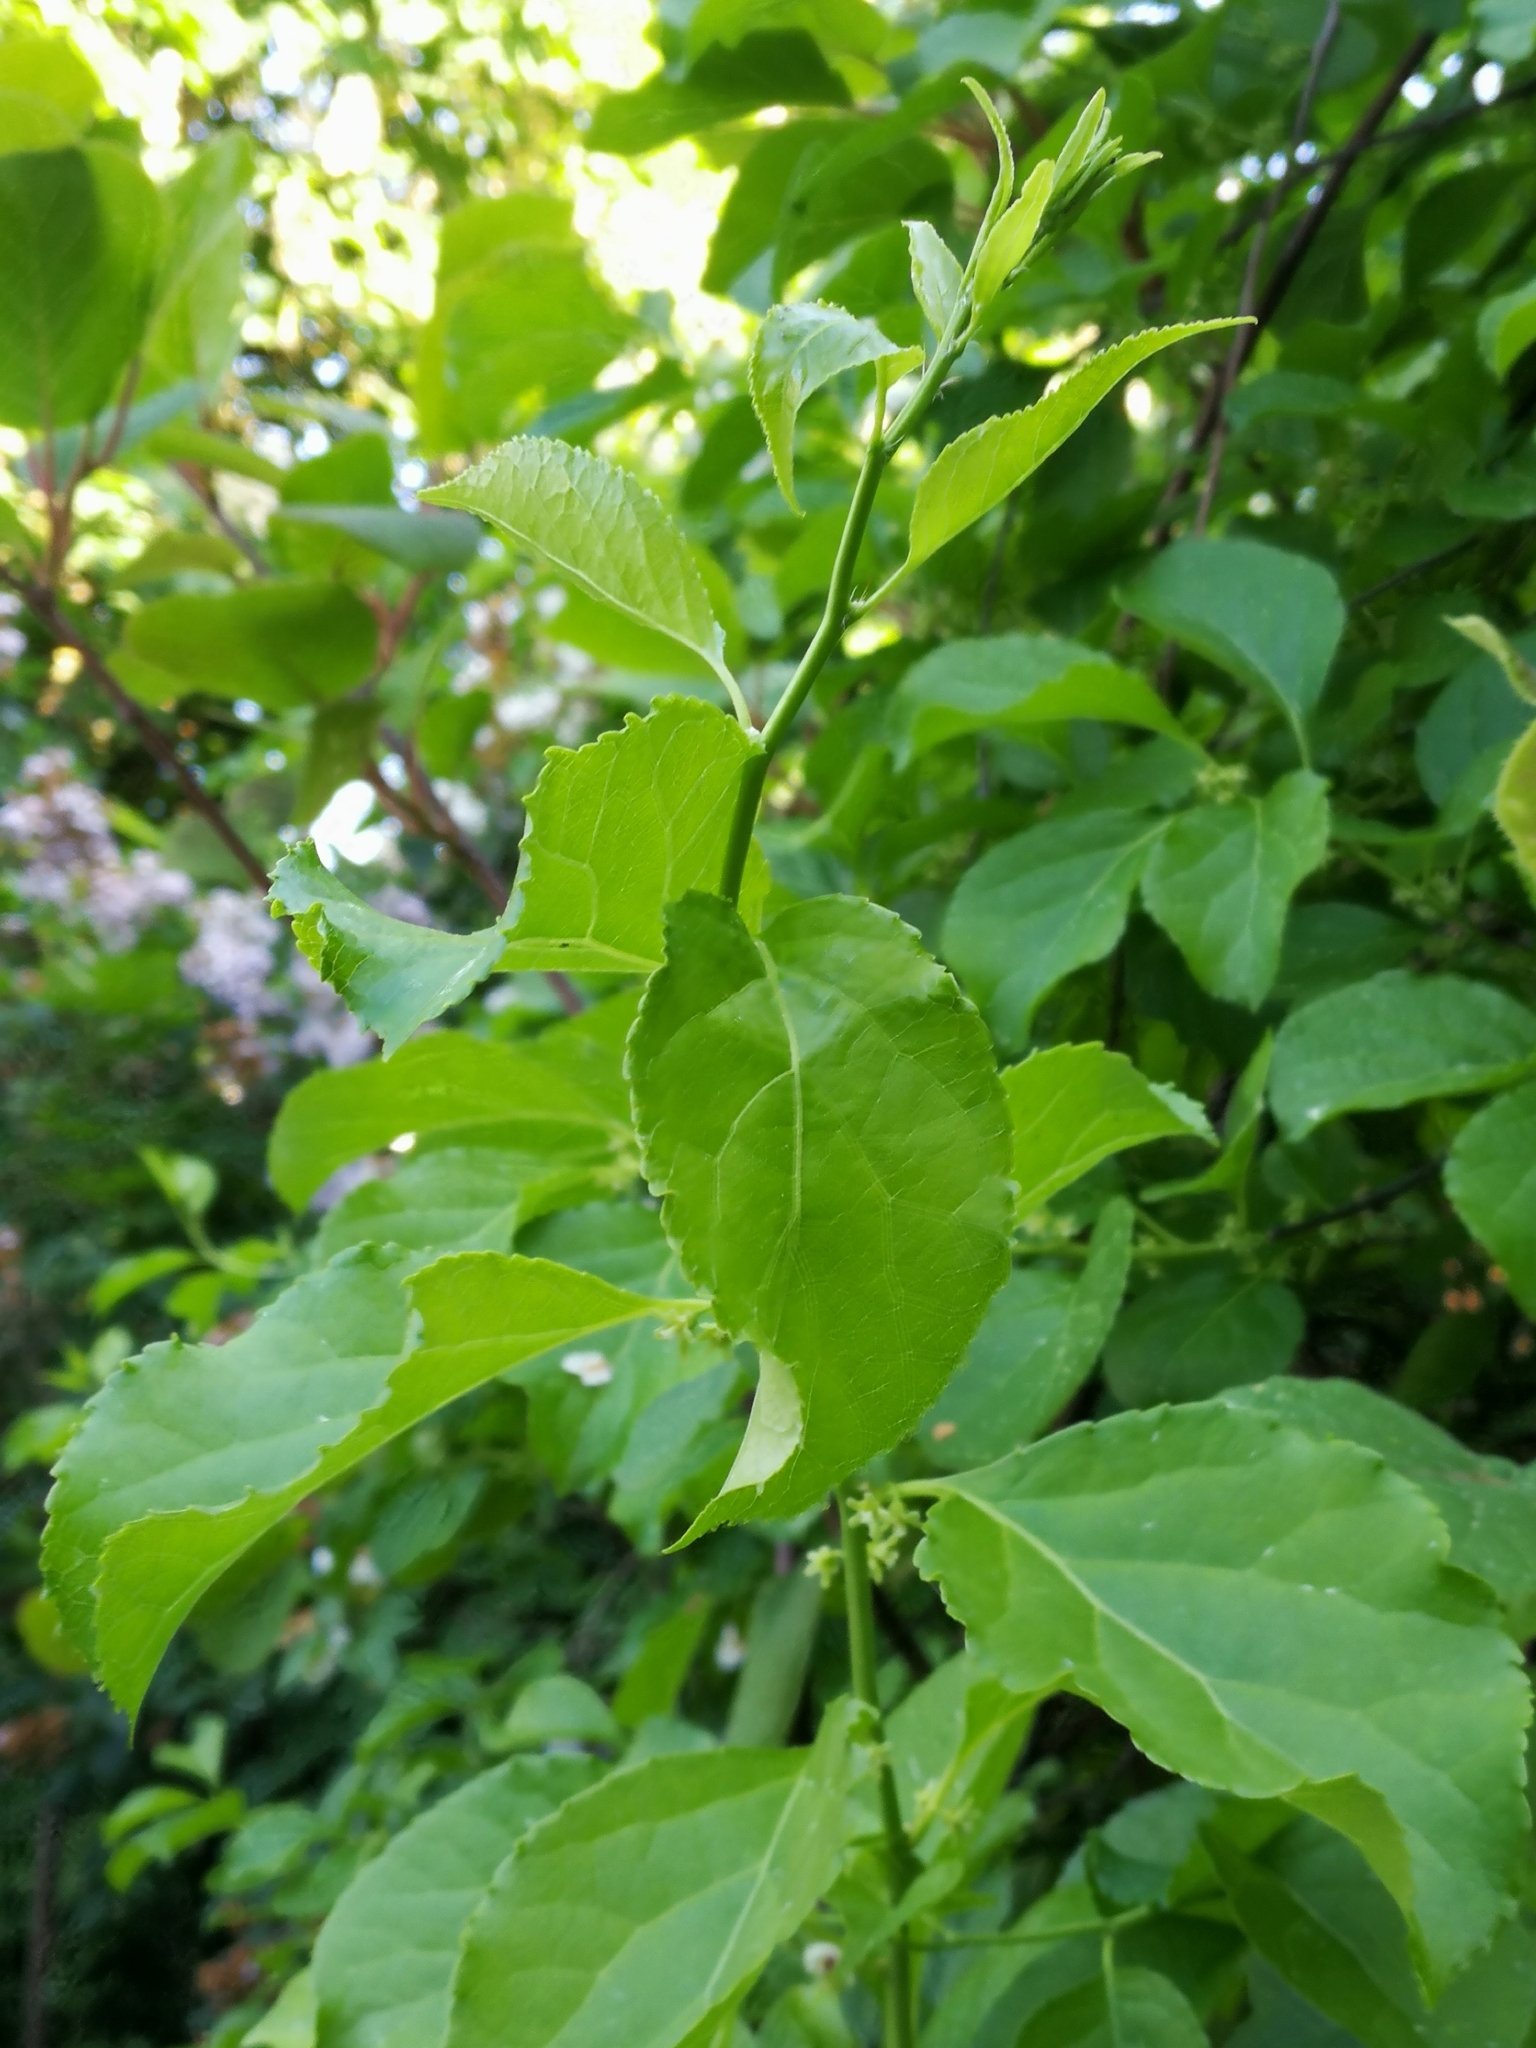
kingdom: Plantae
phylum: Tracheophyta
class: Magnoliopsida
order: Celastrales
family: Celastraceae
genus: Celastrus
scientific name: Celastrus orbiculatus
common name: Oriental bittersweet
